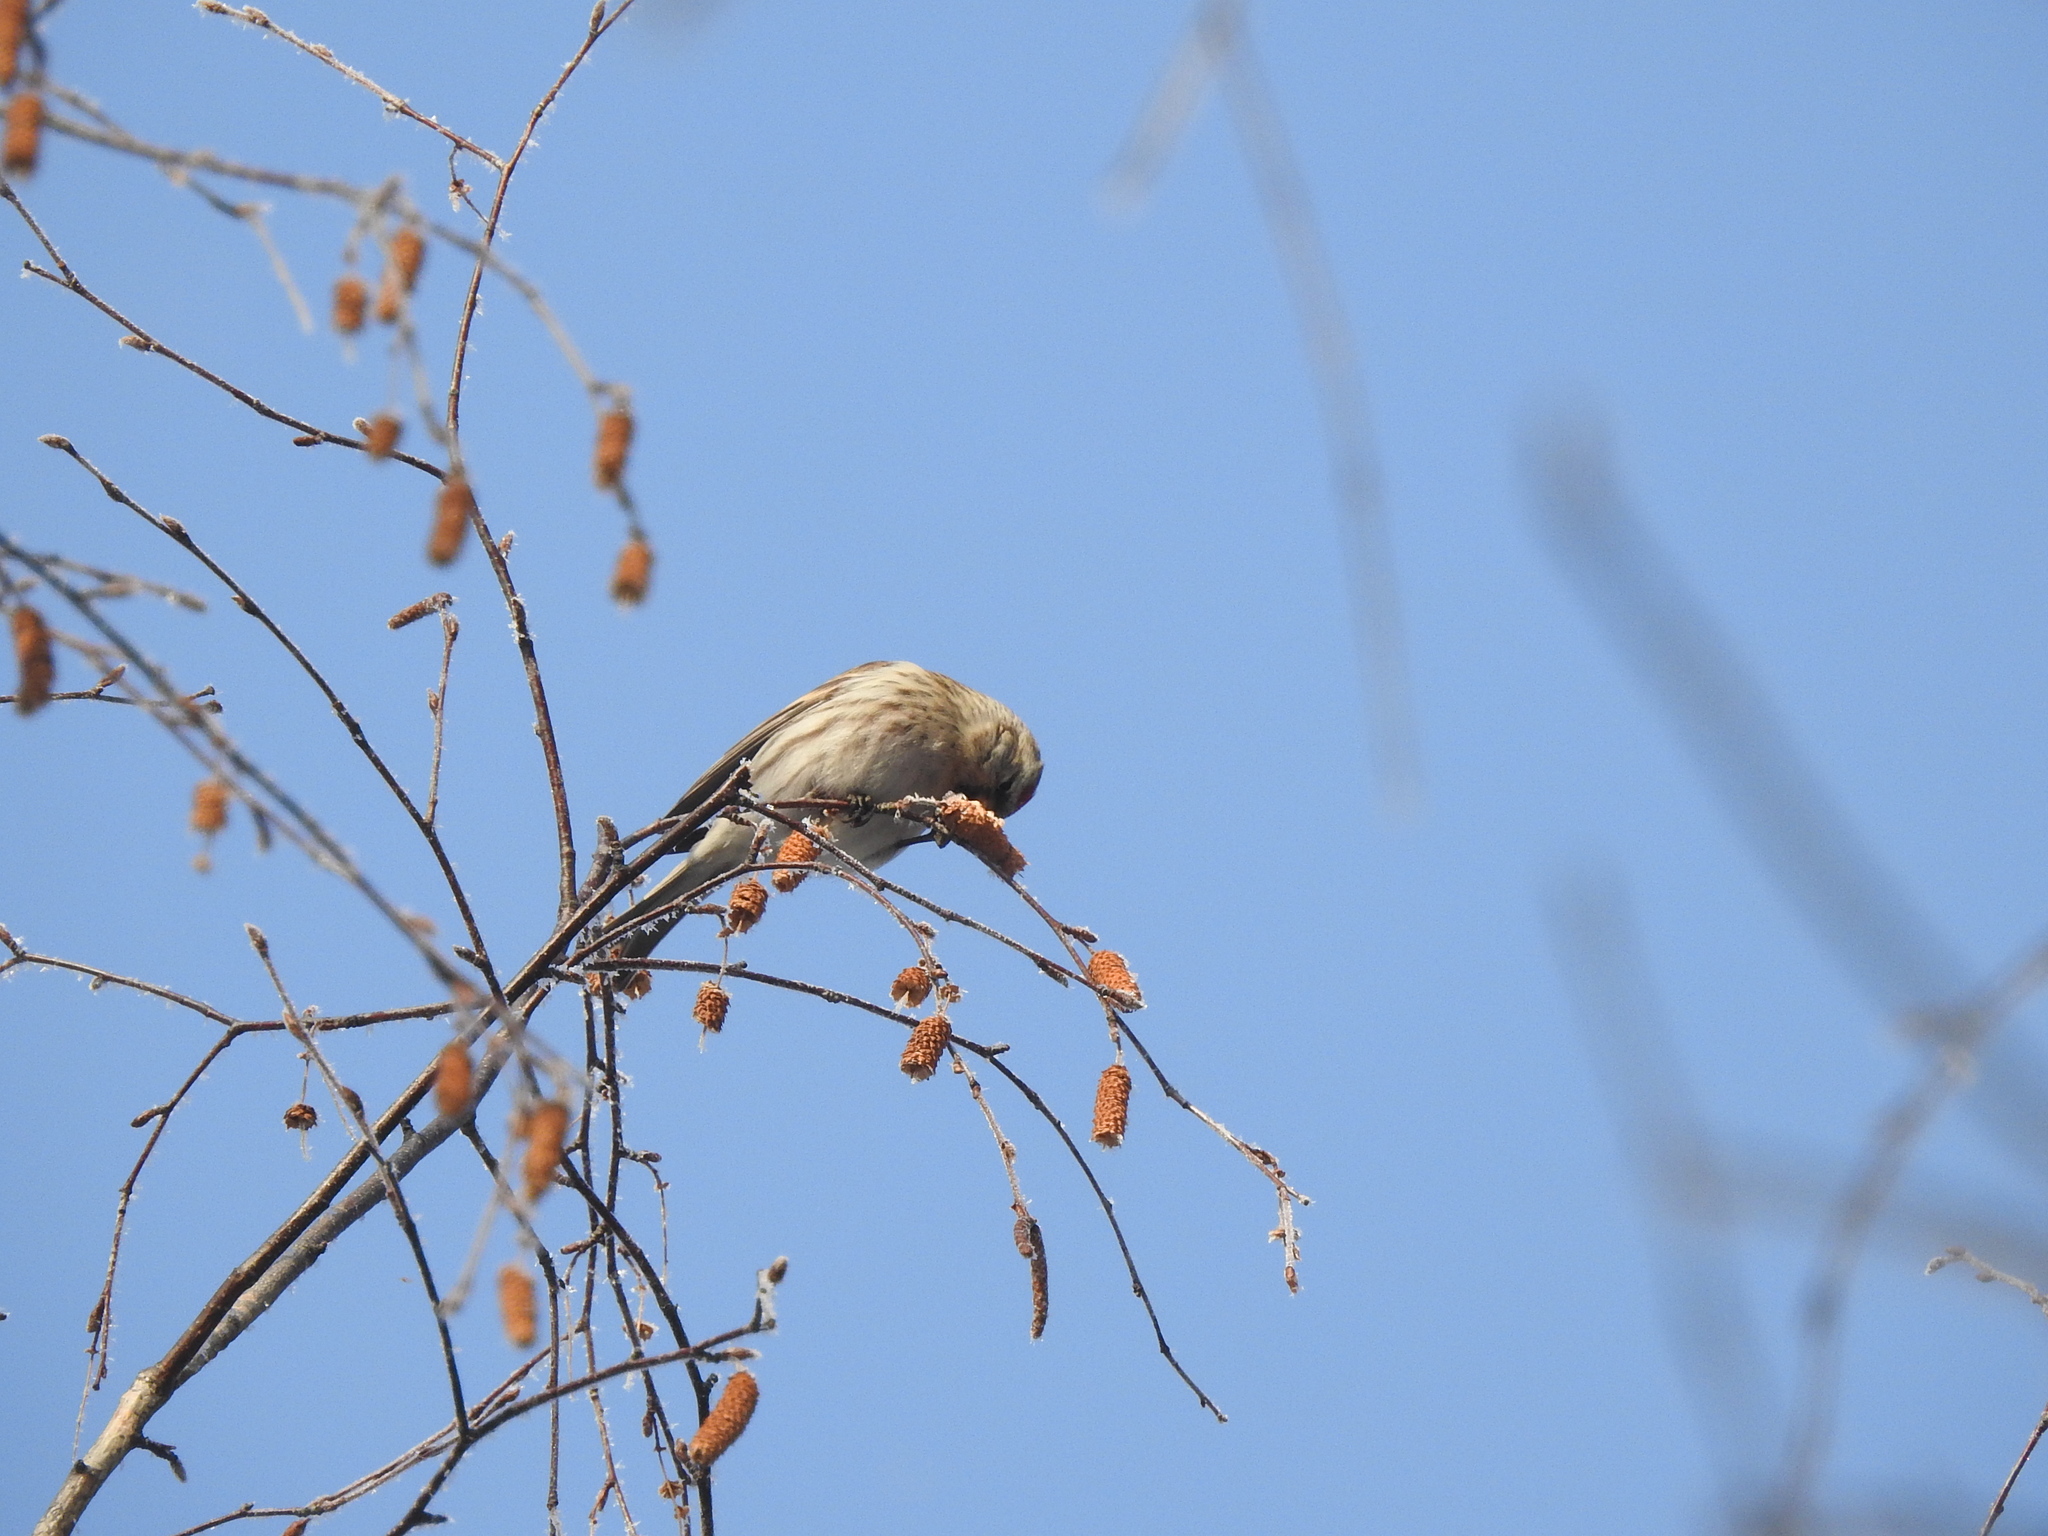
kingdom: Animalia
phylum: Chordata
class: Aves
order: Passeriformes
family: Fringillidae
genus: Acanthis
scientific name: Acanthis flammea
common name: Common redpoll
